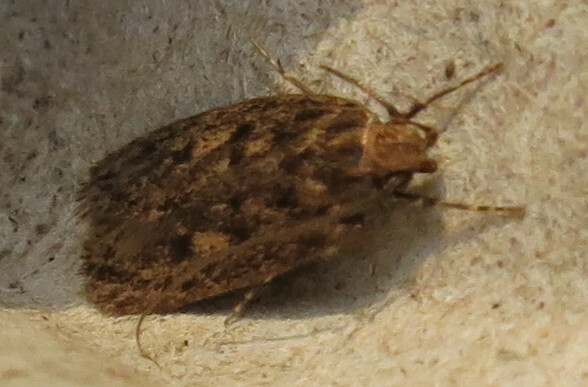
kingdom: Animalia
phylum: Arthropoda
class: Insecta
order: Lepidoptera
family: Oecophoridae
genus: Hofmannophila
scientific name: Hofmannophila pseudospretella
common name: Brown house moth
